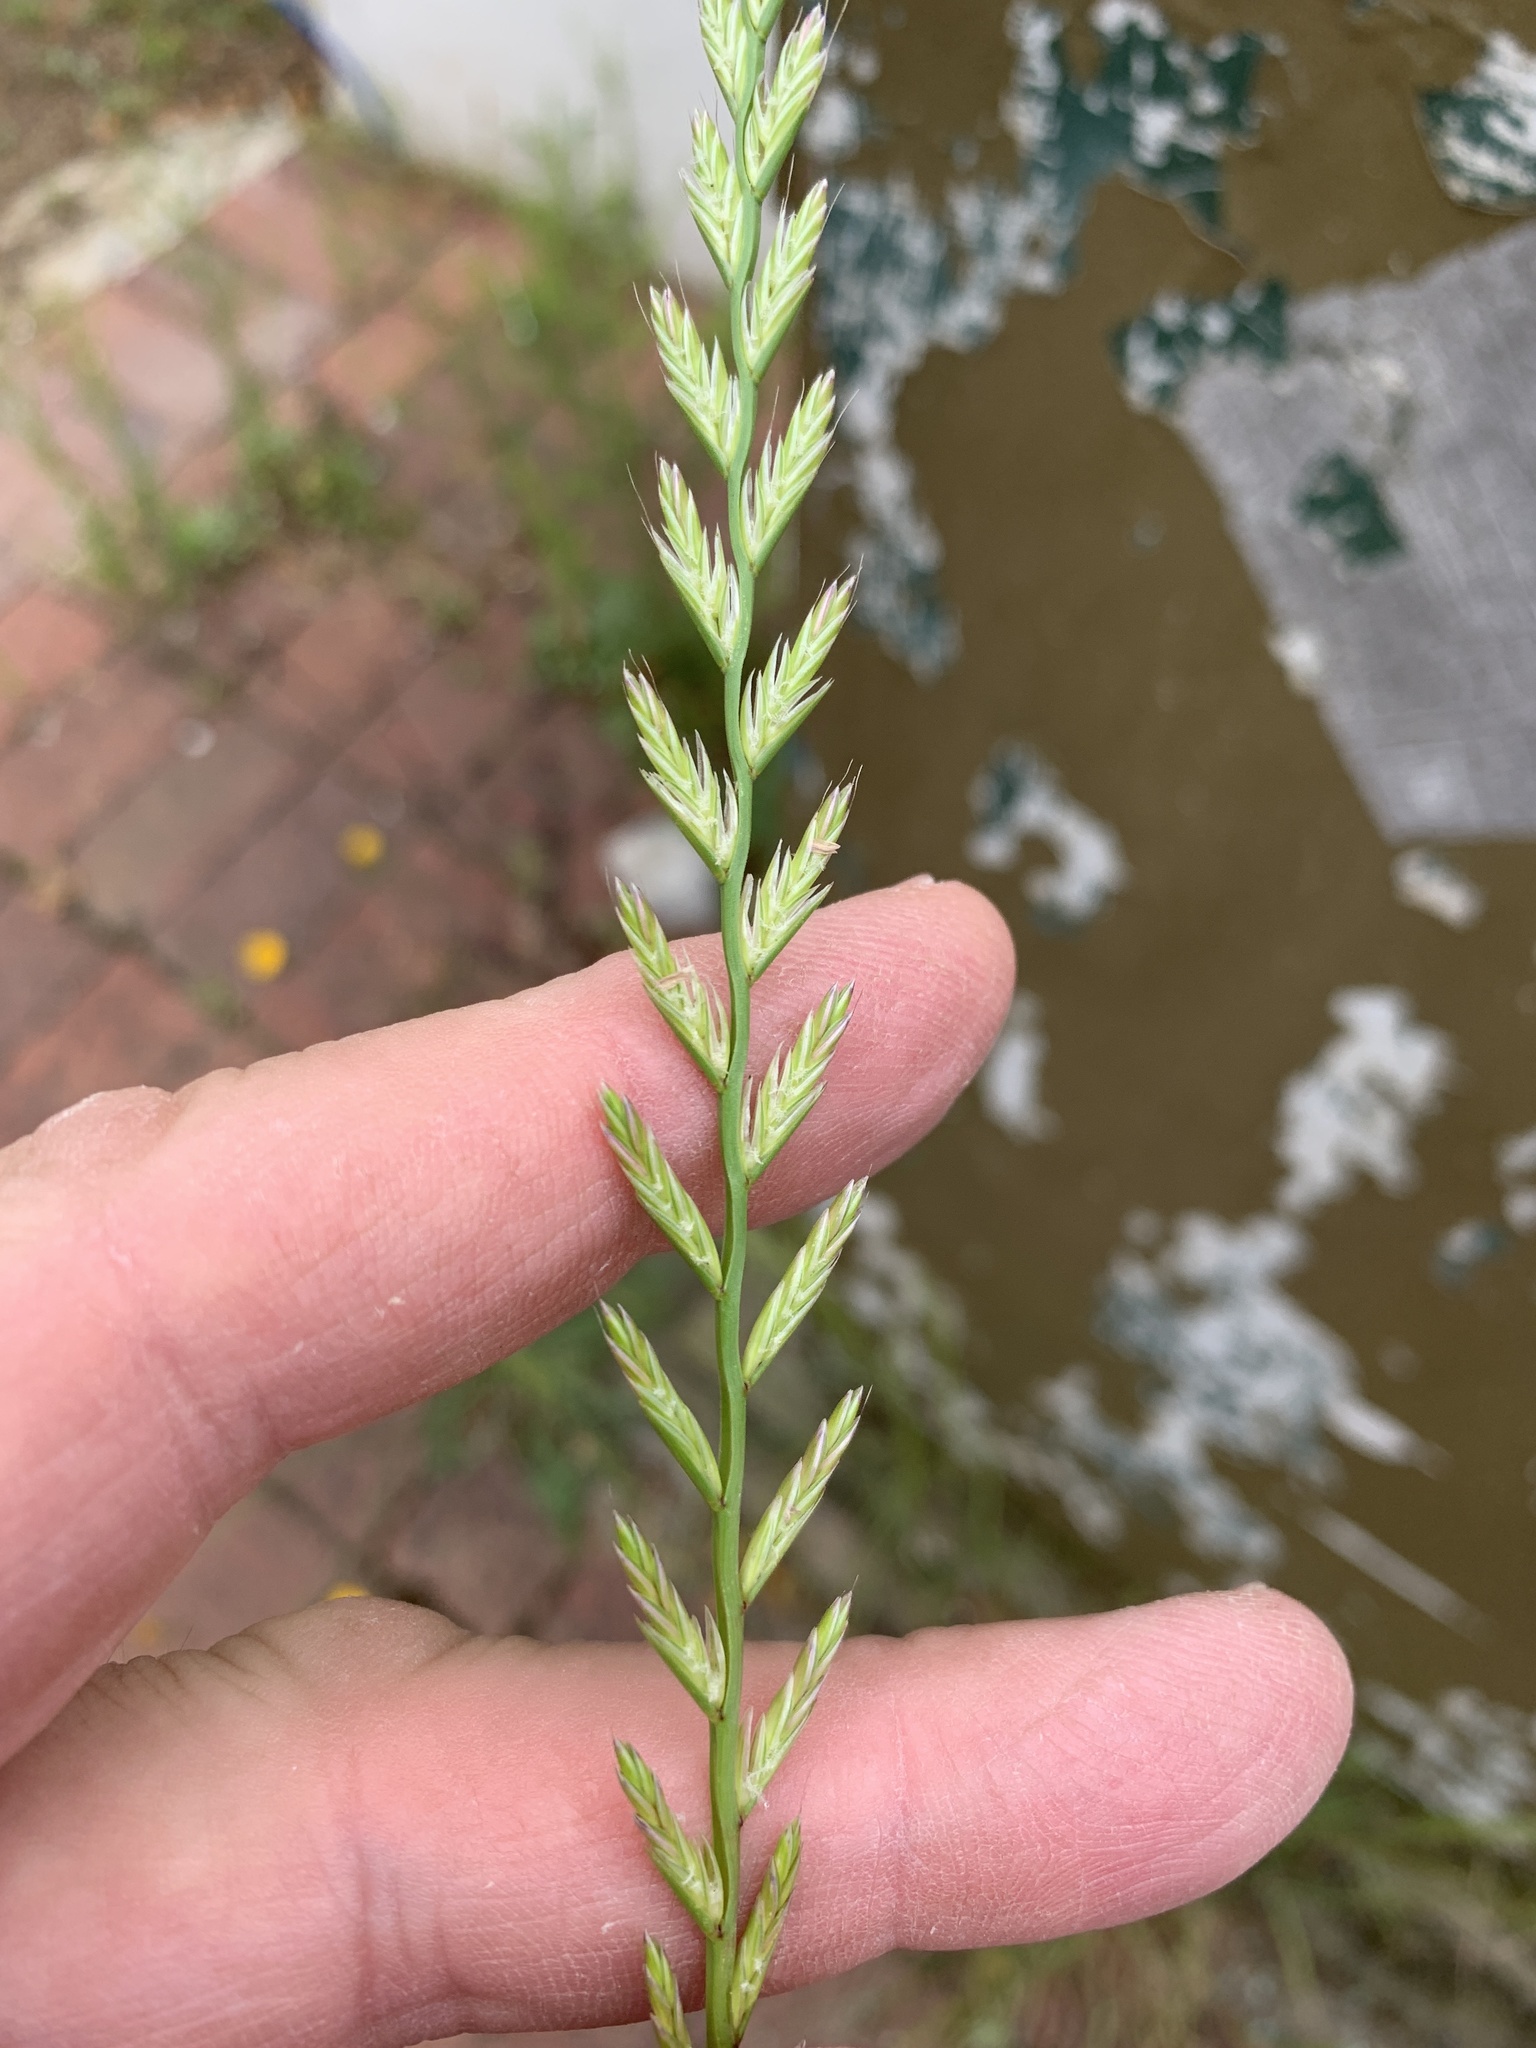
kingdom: Plantae
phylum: Tracheophyta
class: Liliopsida
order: Poales
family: Poaceae
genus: Lolium
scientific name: Lolium perenne
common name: Perennial ryegrass
